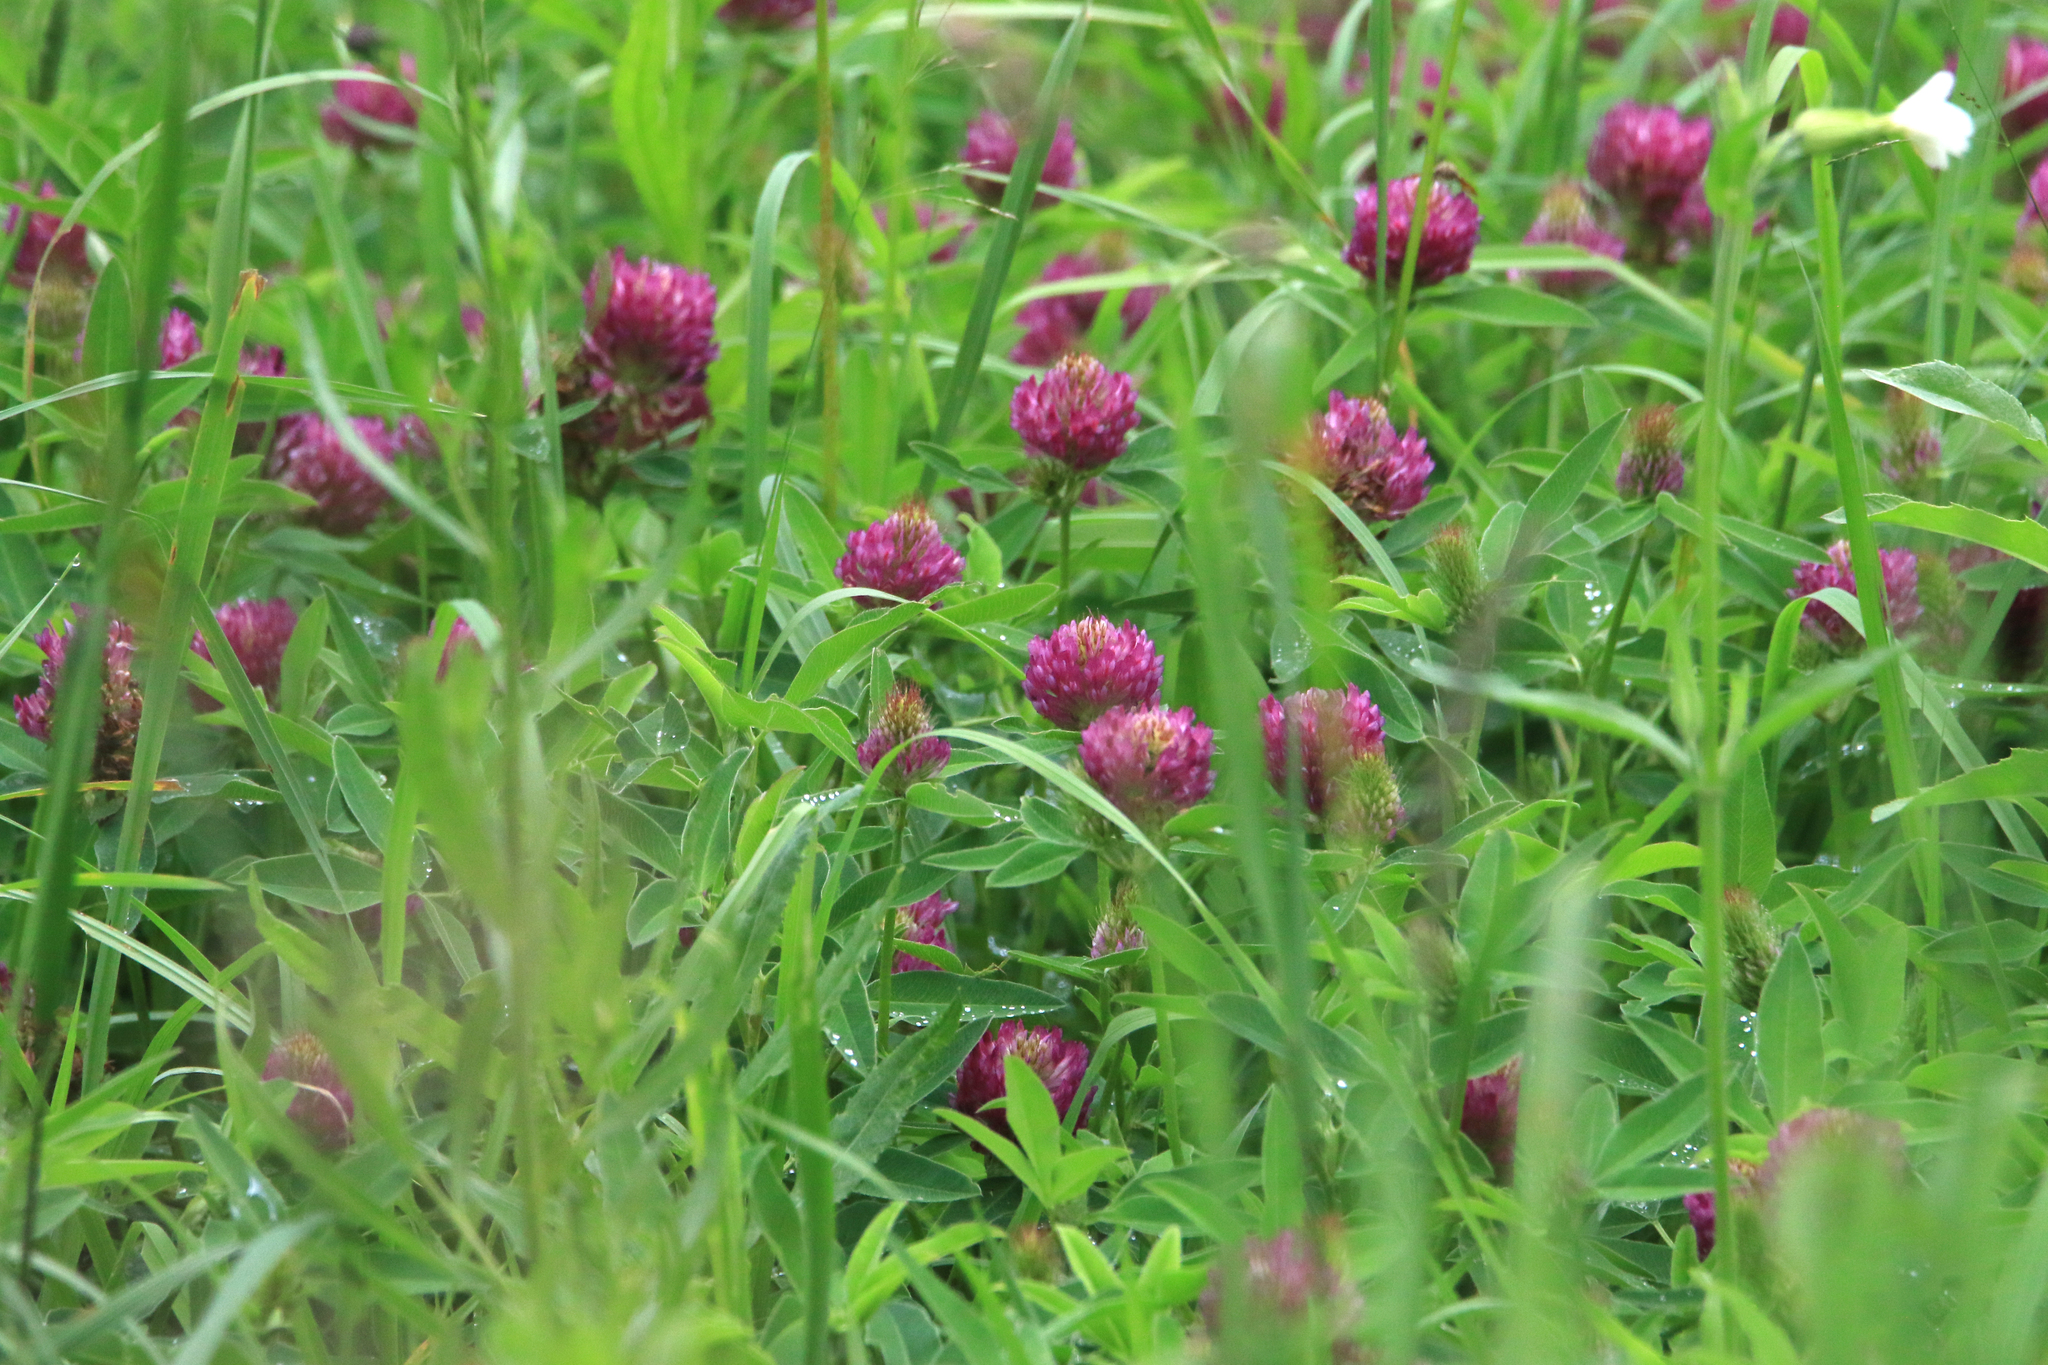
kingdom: Plantae
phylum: Tracheophyta
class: Magnoliopsida
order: Fabales
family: Fabaceae
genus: Trifolium
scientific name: Trifolium medium
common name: Zigzag clover
